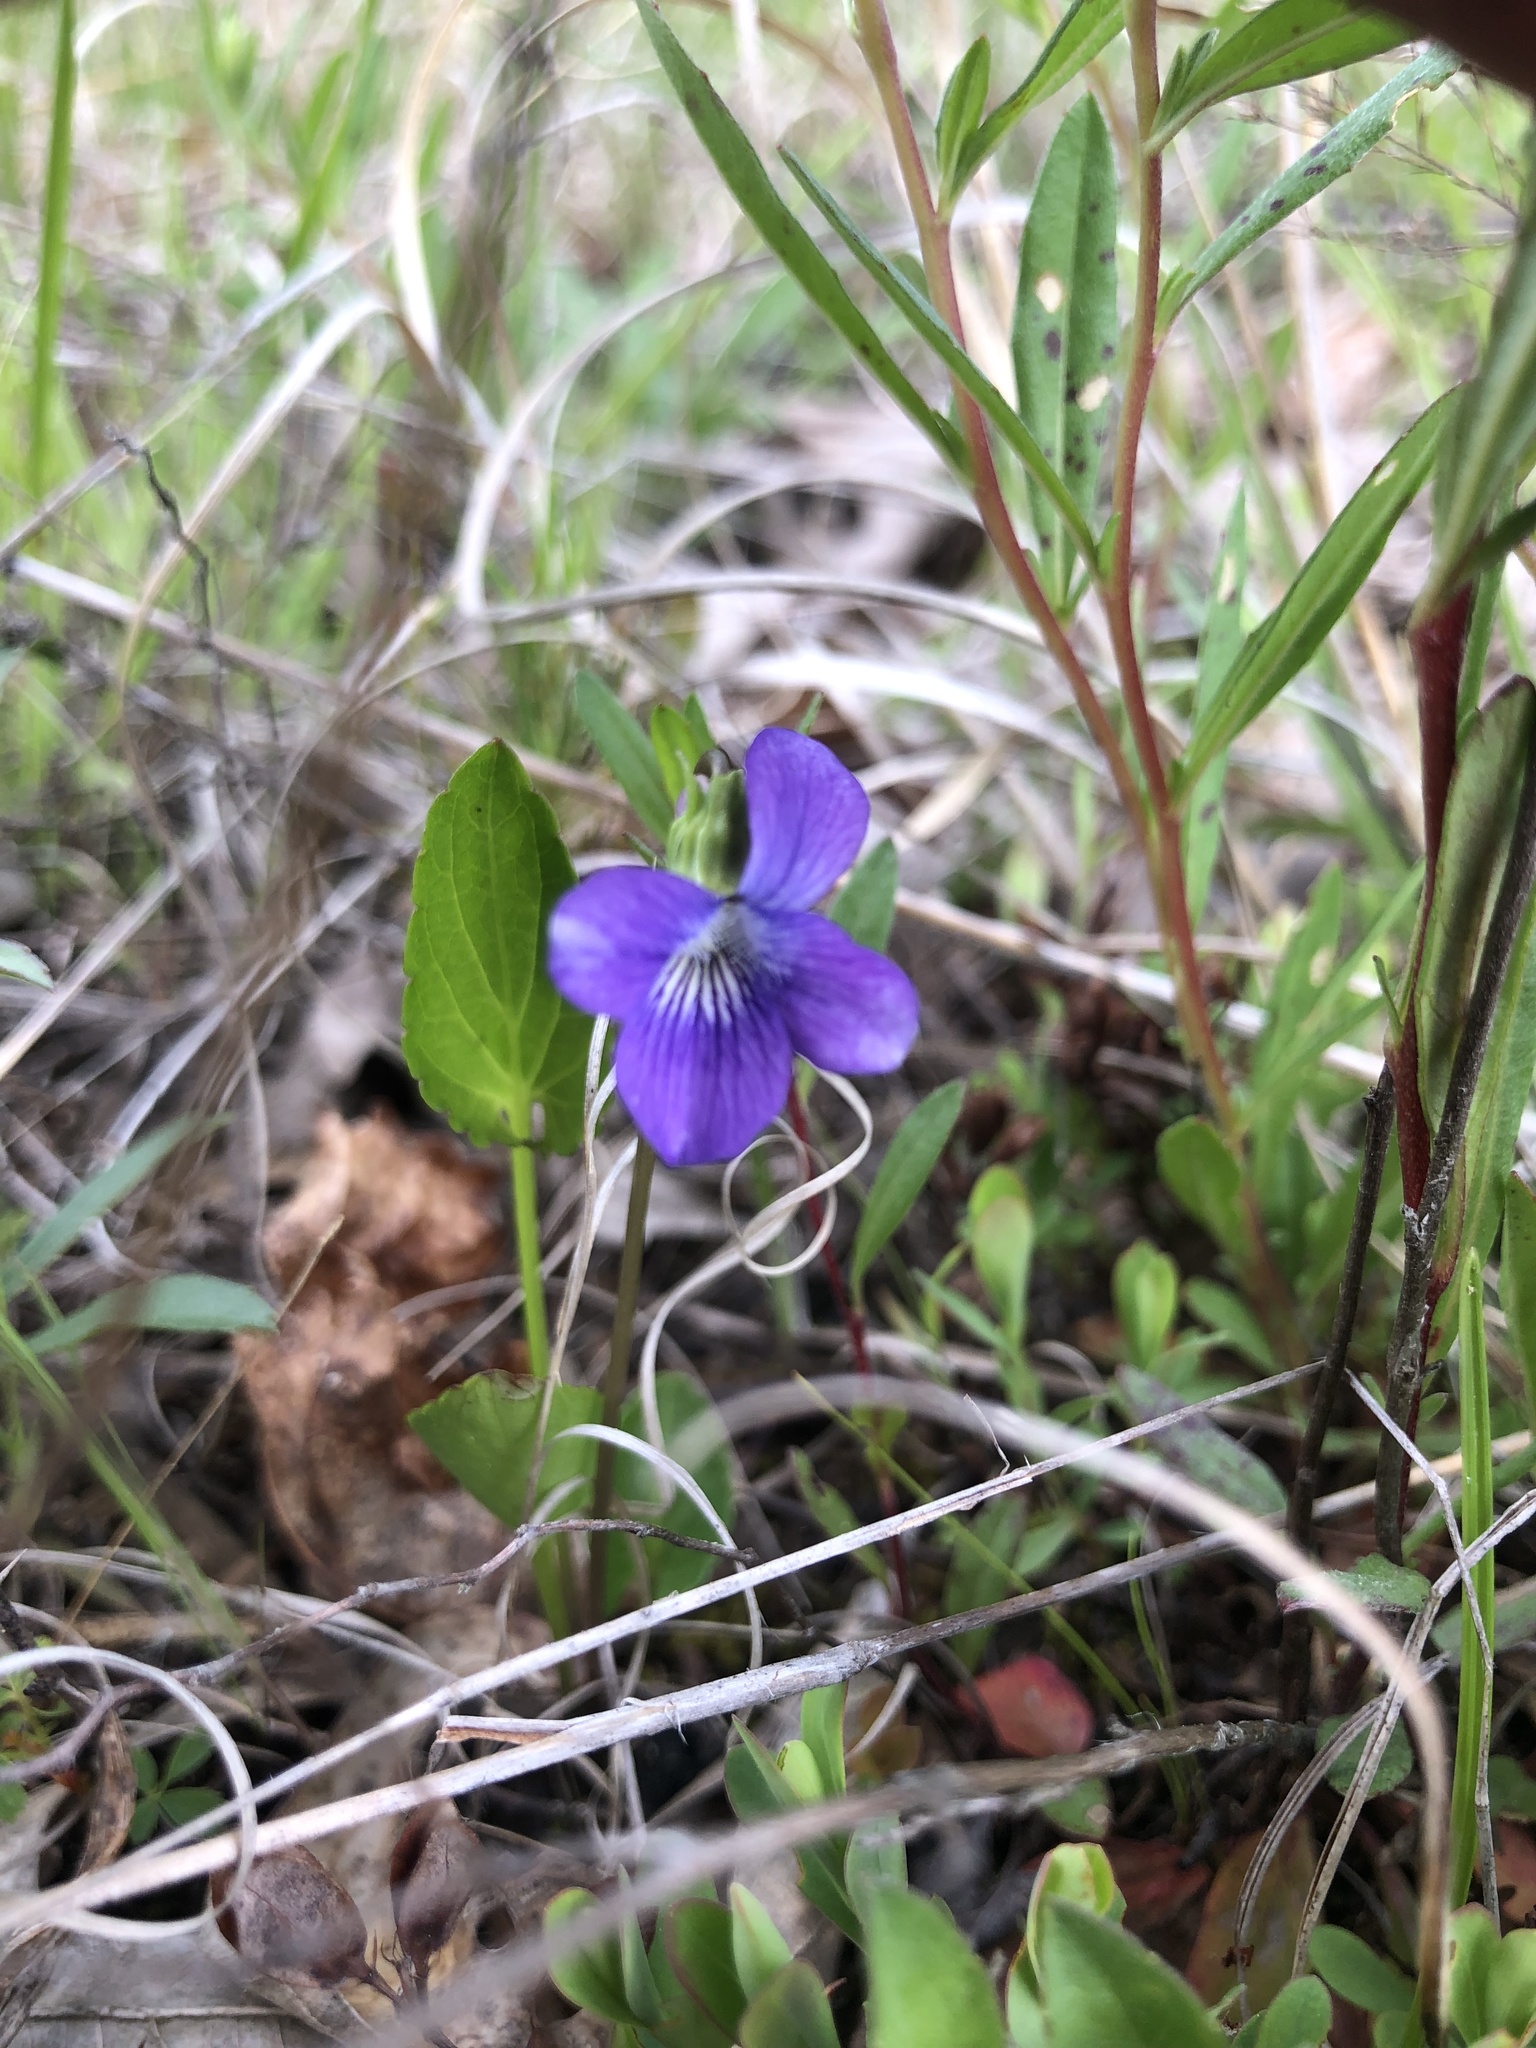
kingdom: Plantae
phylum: Tracheophyta
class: Magnoliopsida
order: Malpighiales
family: Violaceae
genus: Viola
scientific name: Viola emarginata
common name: Triangle-leaved violet
